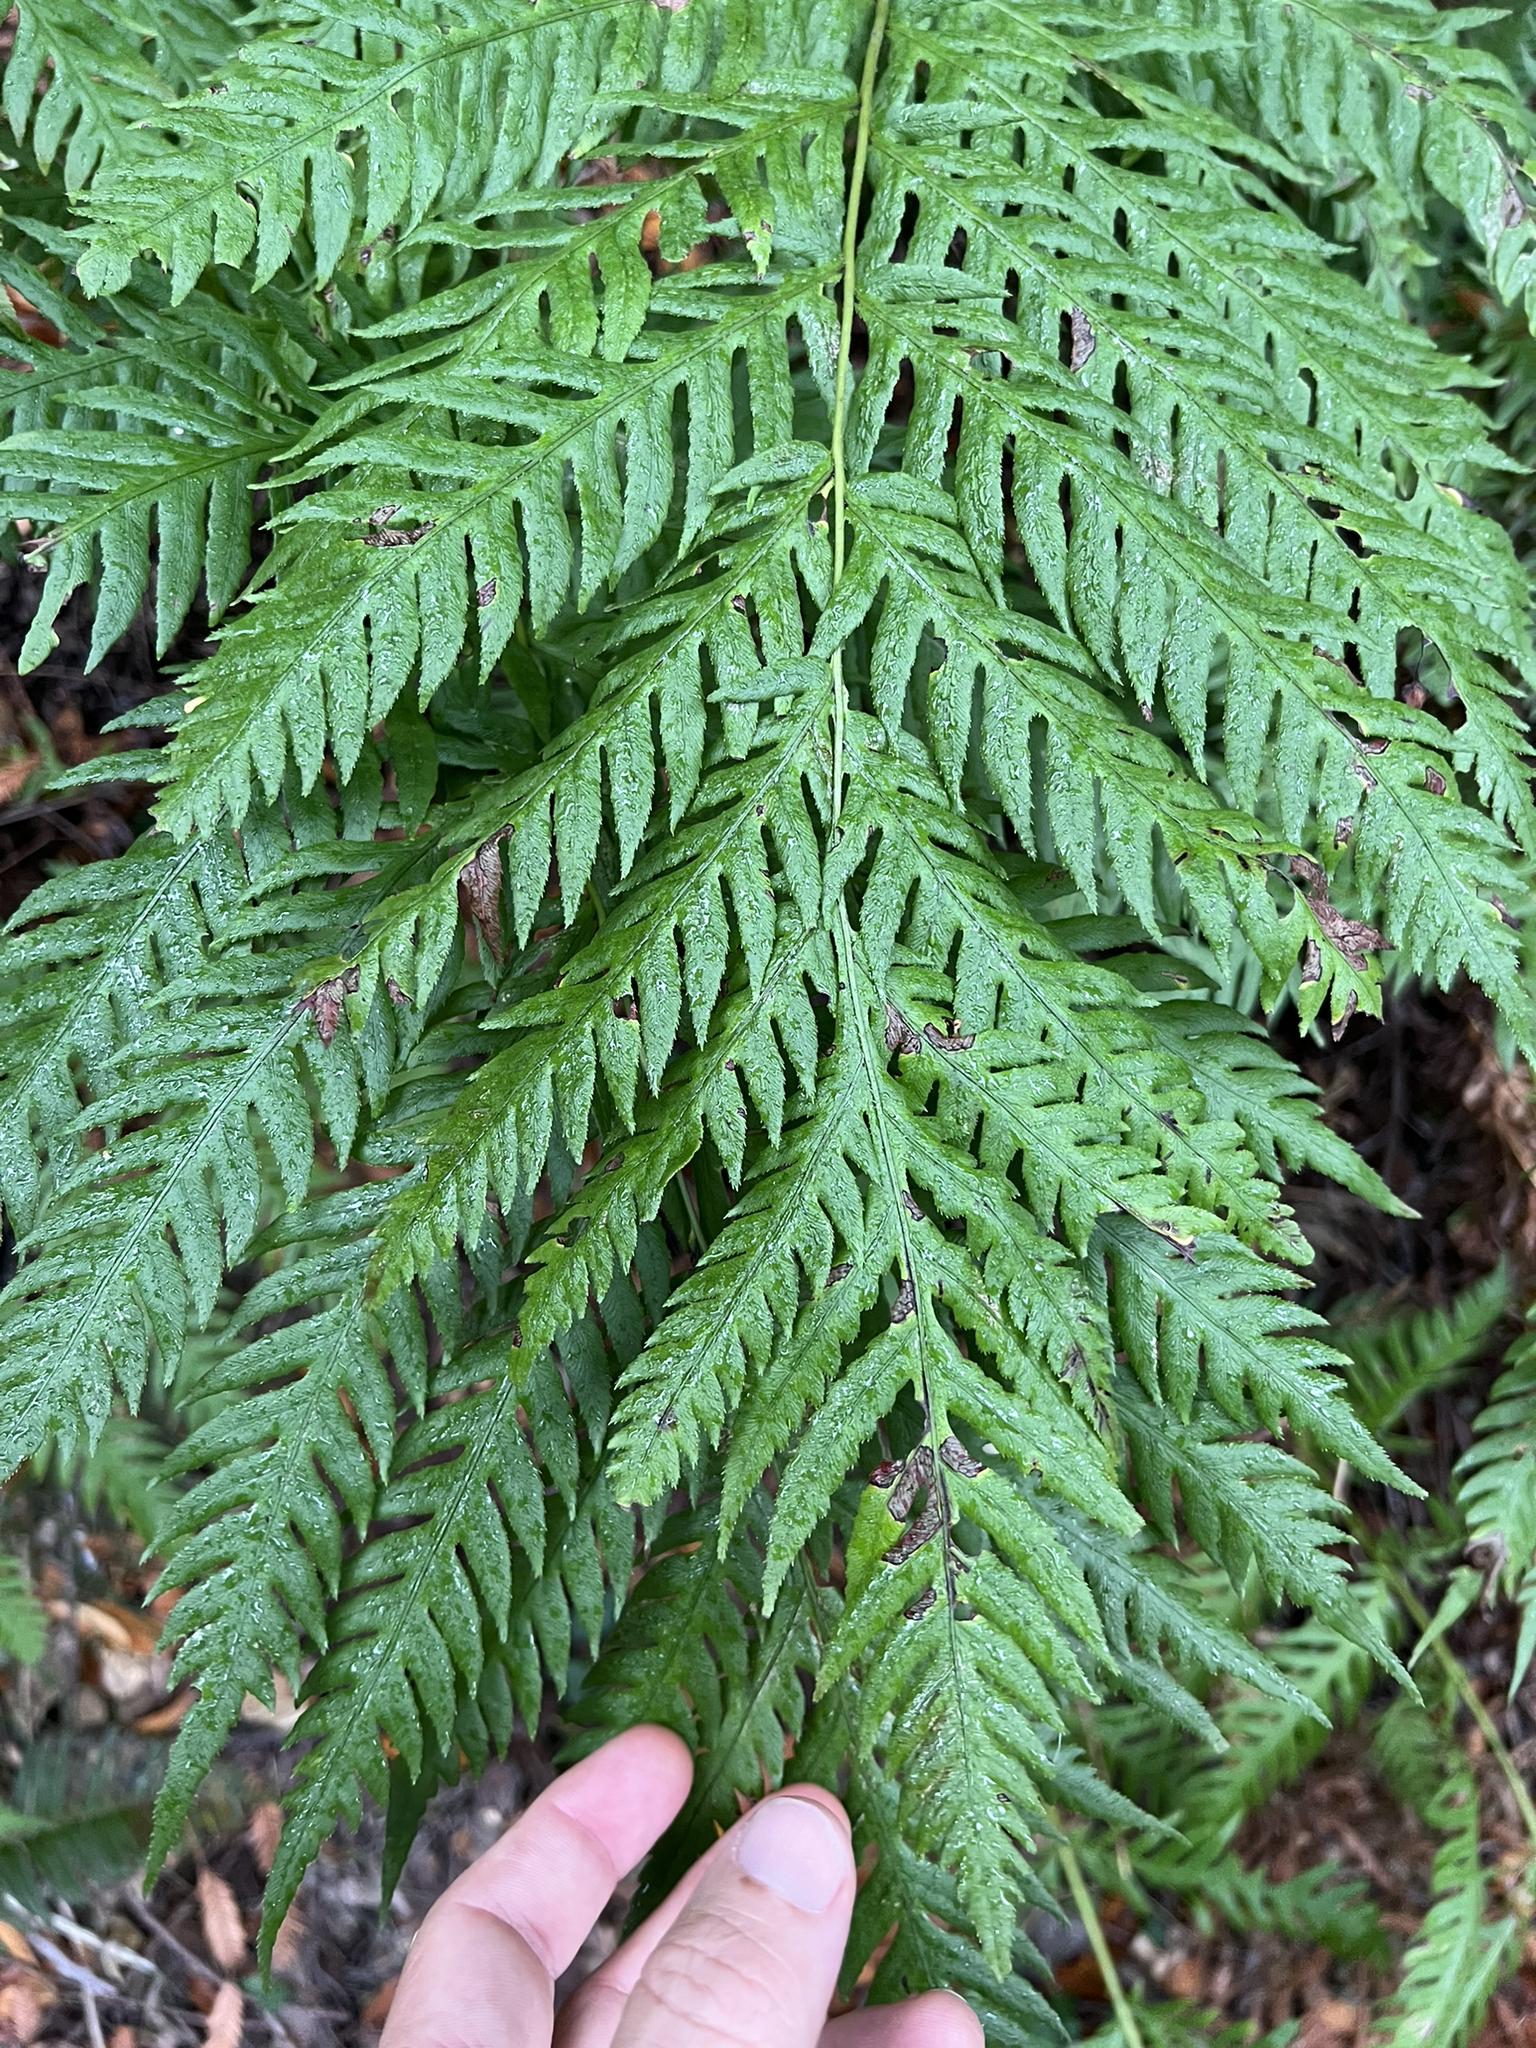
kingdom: Plantae
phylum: Tracheophyta
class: Polypodiopsida
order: Polypodiales
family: Blechnaceae
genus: Woodwardia
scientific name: Woodwardia fimbriata
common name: Giant chain fern
